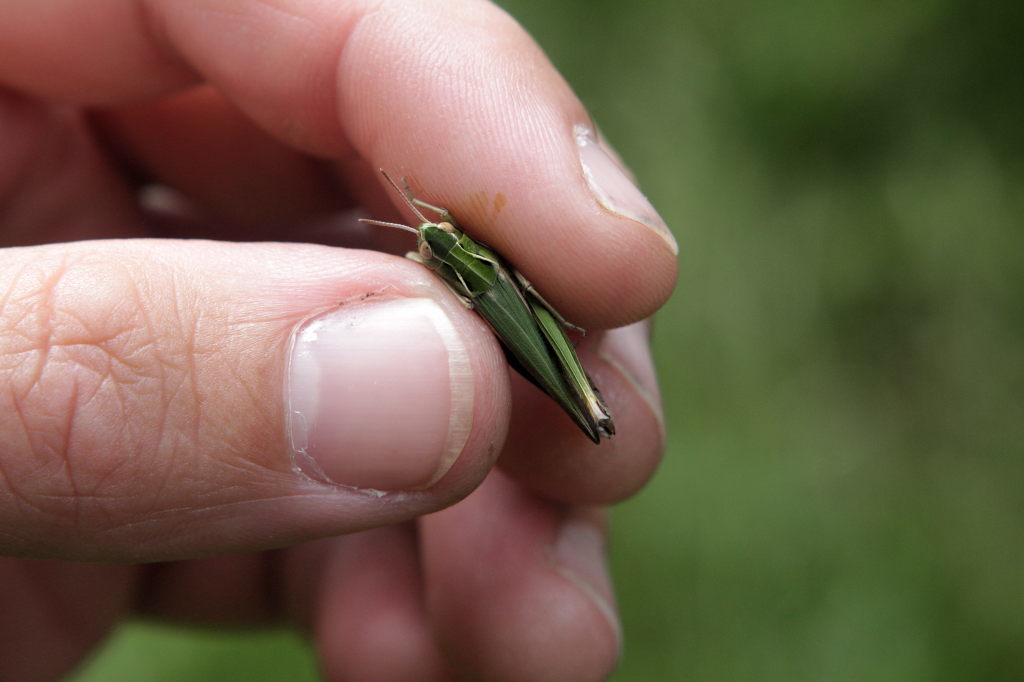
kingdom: Animalia
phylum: Arthropoda
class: Insecta
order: Orthoptera
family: Acrididae
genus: Omocestus
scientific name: Omocestus viridulus
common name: Common green grasshopper
